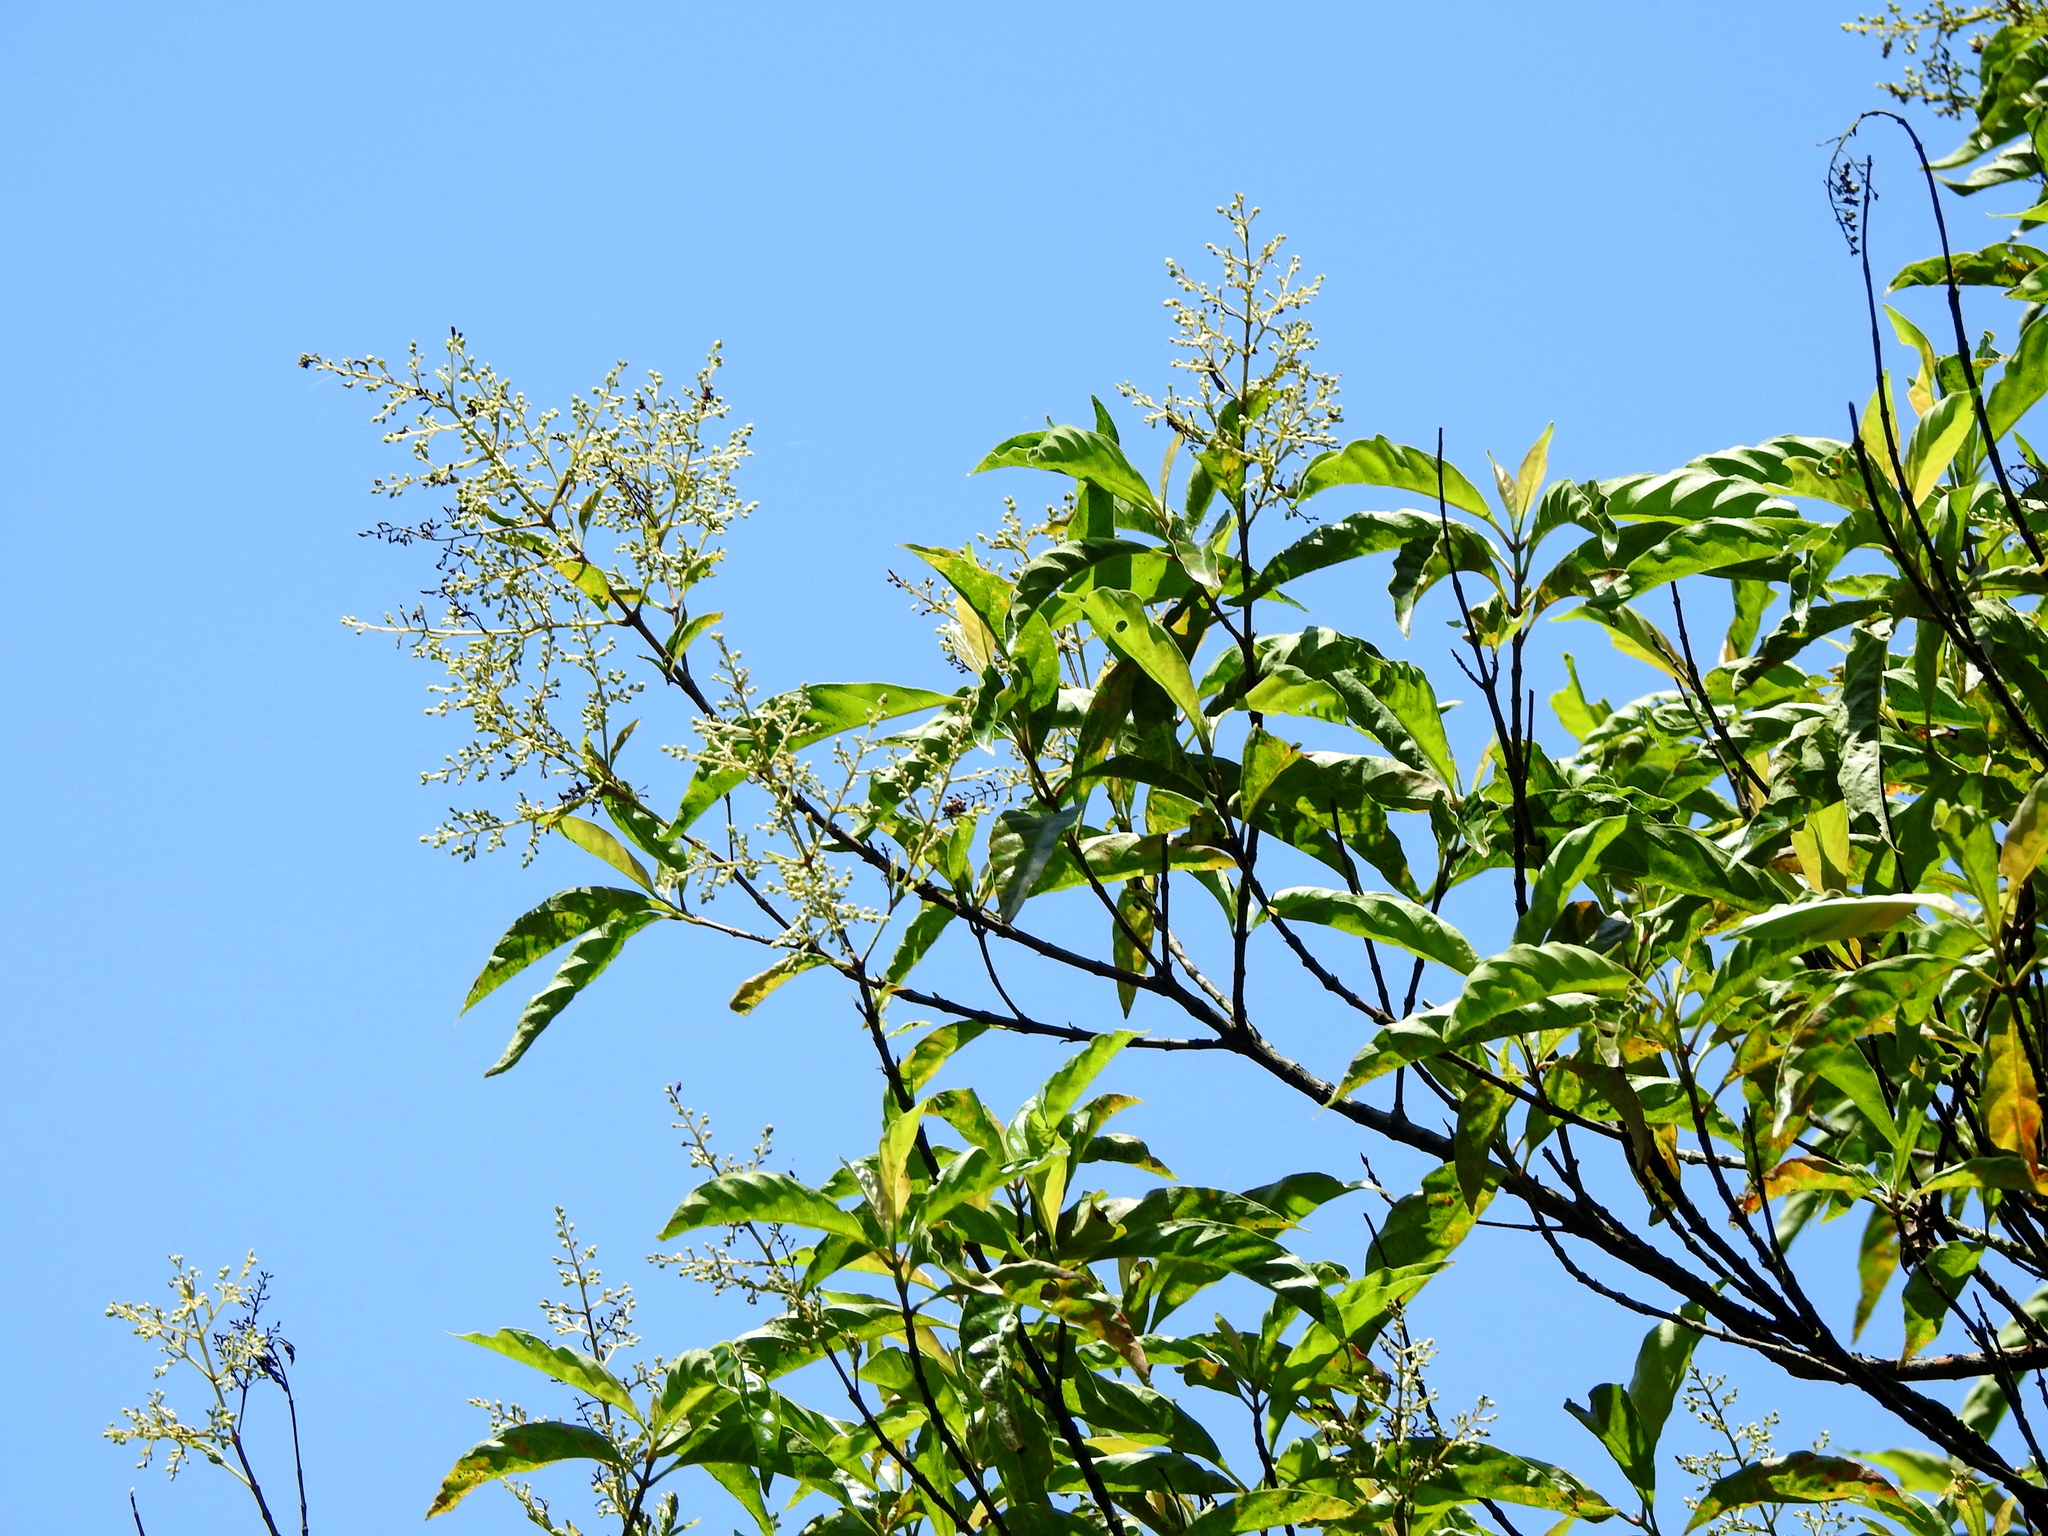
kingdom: Plantae
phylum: Tracheophyta
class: Magnoliopsida
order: Gentianales
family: Rubiaceae
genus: Wendlandia
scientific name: Wendlandia formosana
